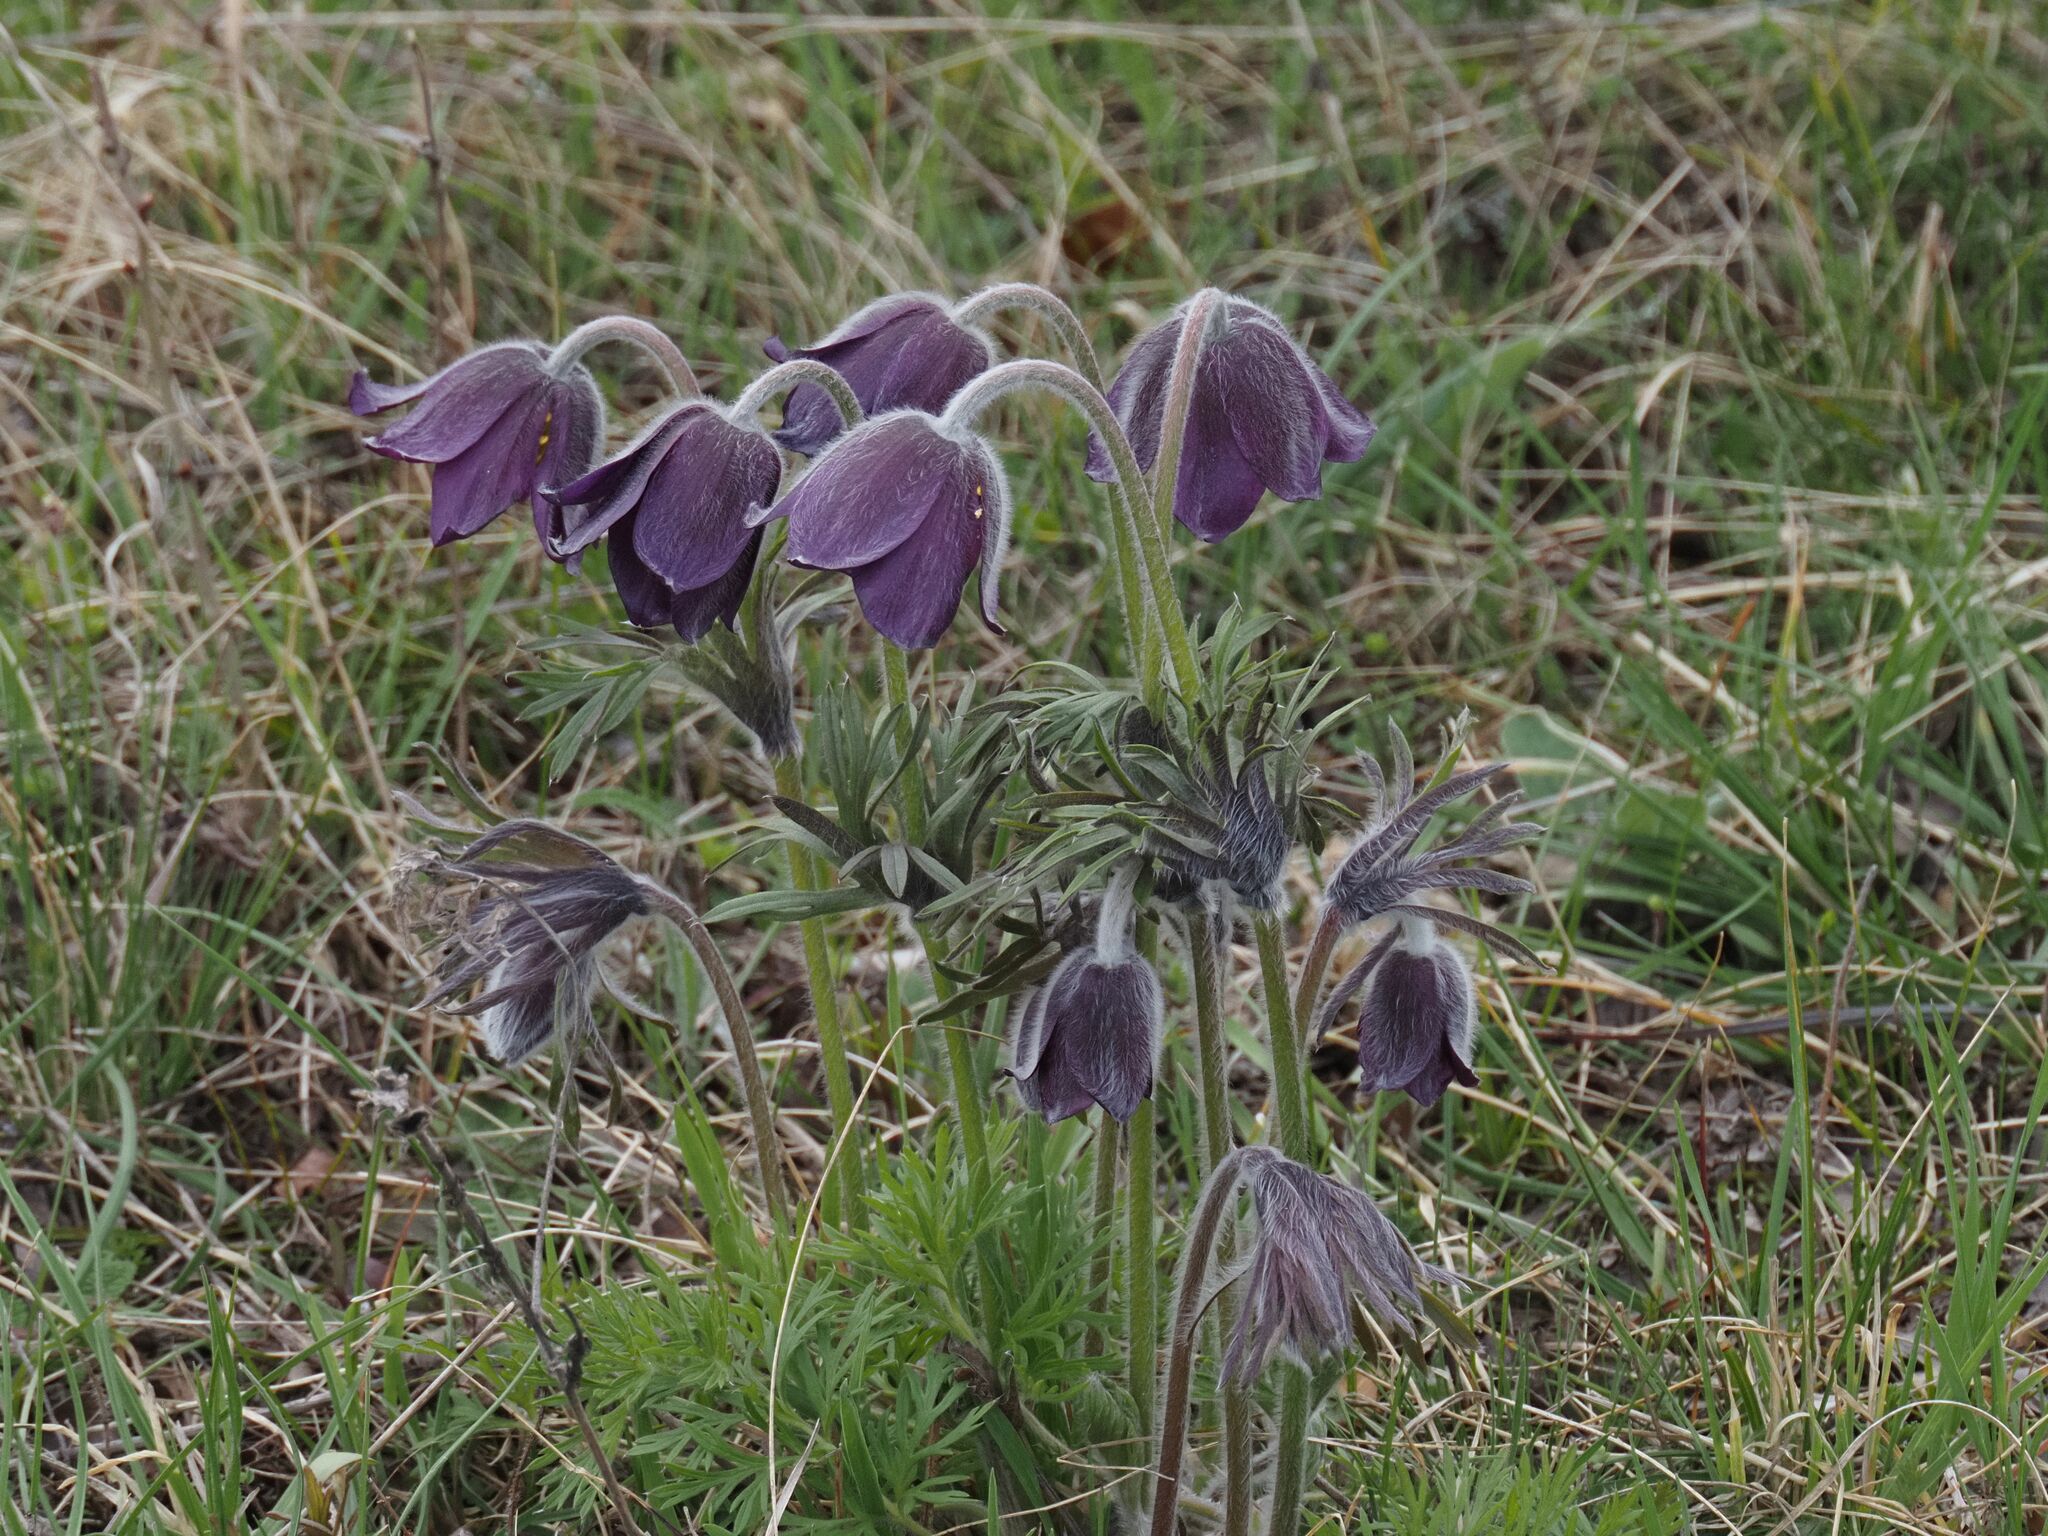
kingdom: Plantae
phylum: Tracheophyta
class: Magnoliopsida
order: Ranunculales
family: Ranunculaceae
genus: Pulsatilla
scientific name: Pulsatilla pratensis
